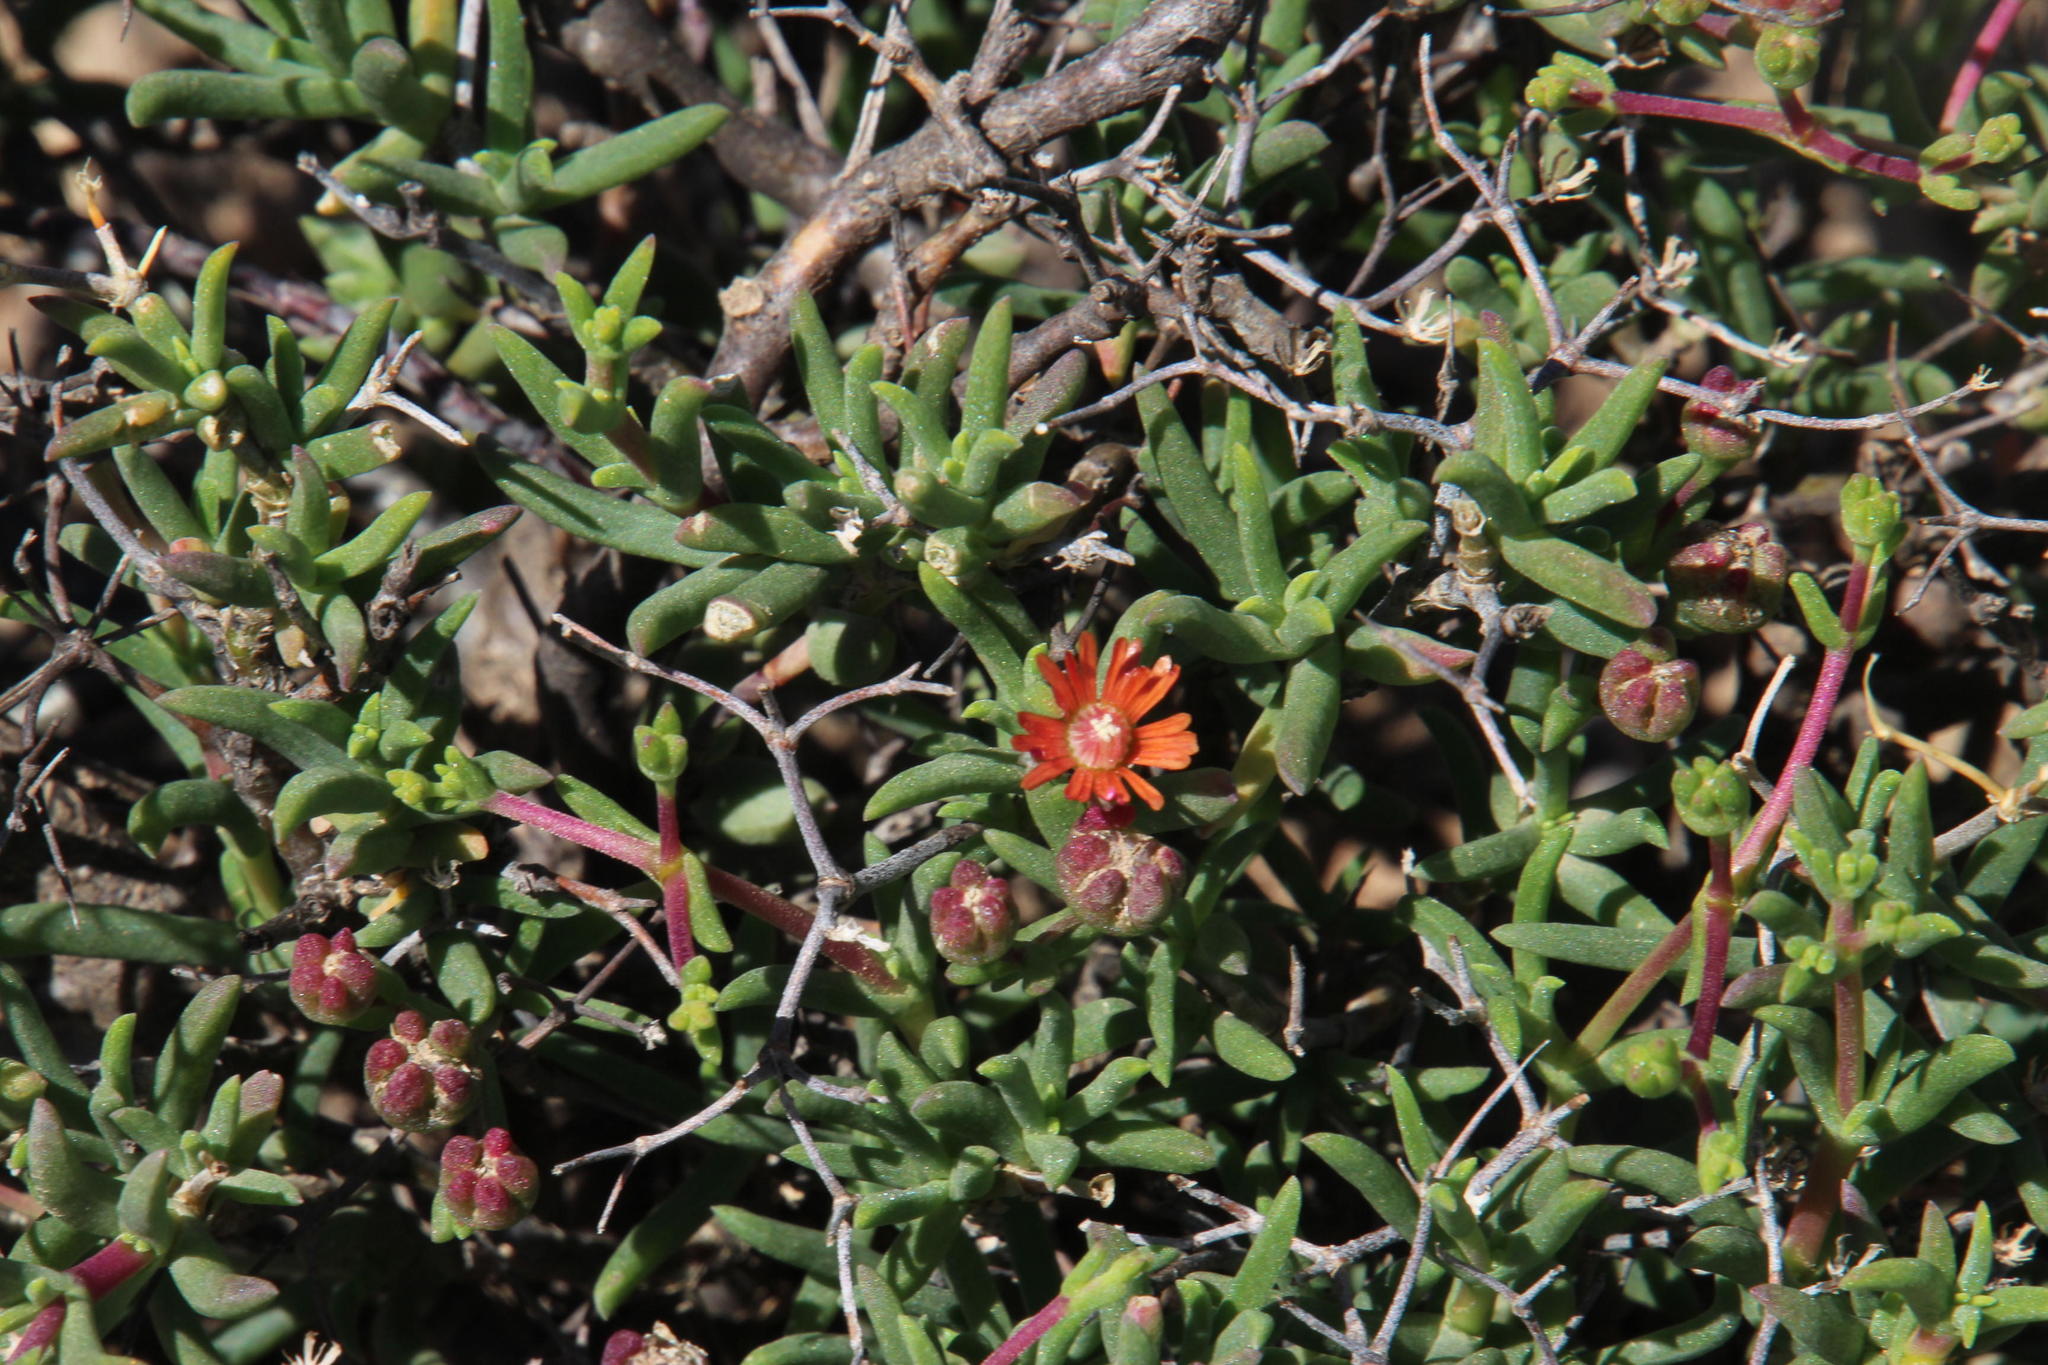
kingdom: Plantae
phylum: Tracheophyta
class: Magnoliopsida
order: Caryophyllales
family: Aizoaceae
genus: Mestoklema
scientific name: Mestoklema tuberosum
